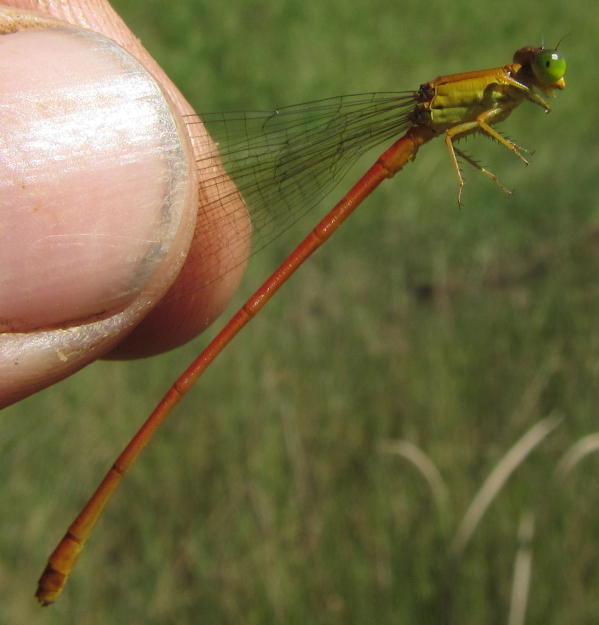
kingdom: Animalia
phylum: Arthropoda
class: Insecta
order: Odonata
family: Coenagrionidae
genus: Ceriagrion
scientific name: Ceriagrion glabrum
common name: Common pond damsel
